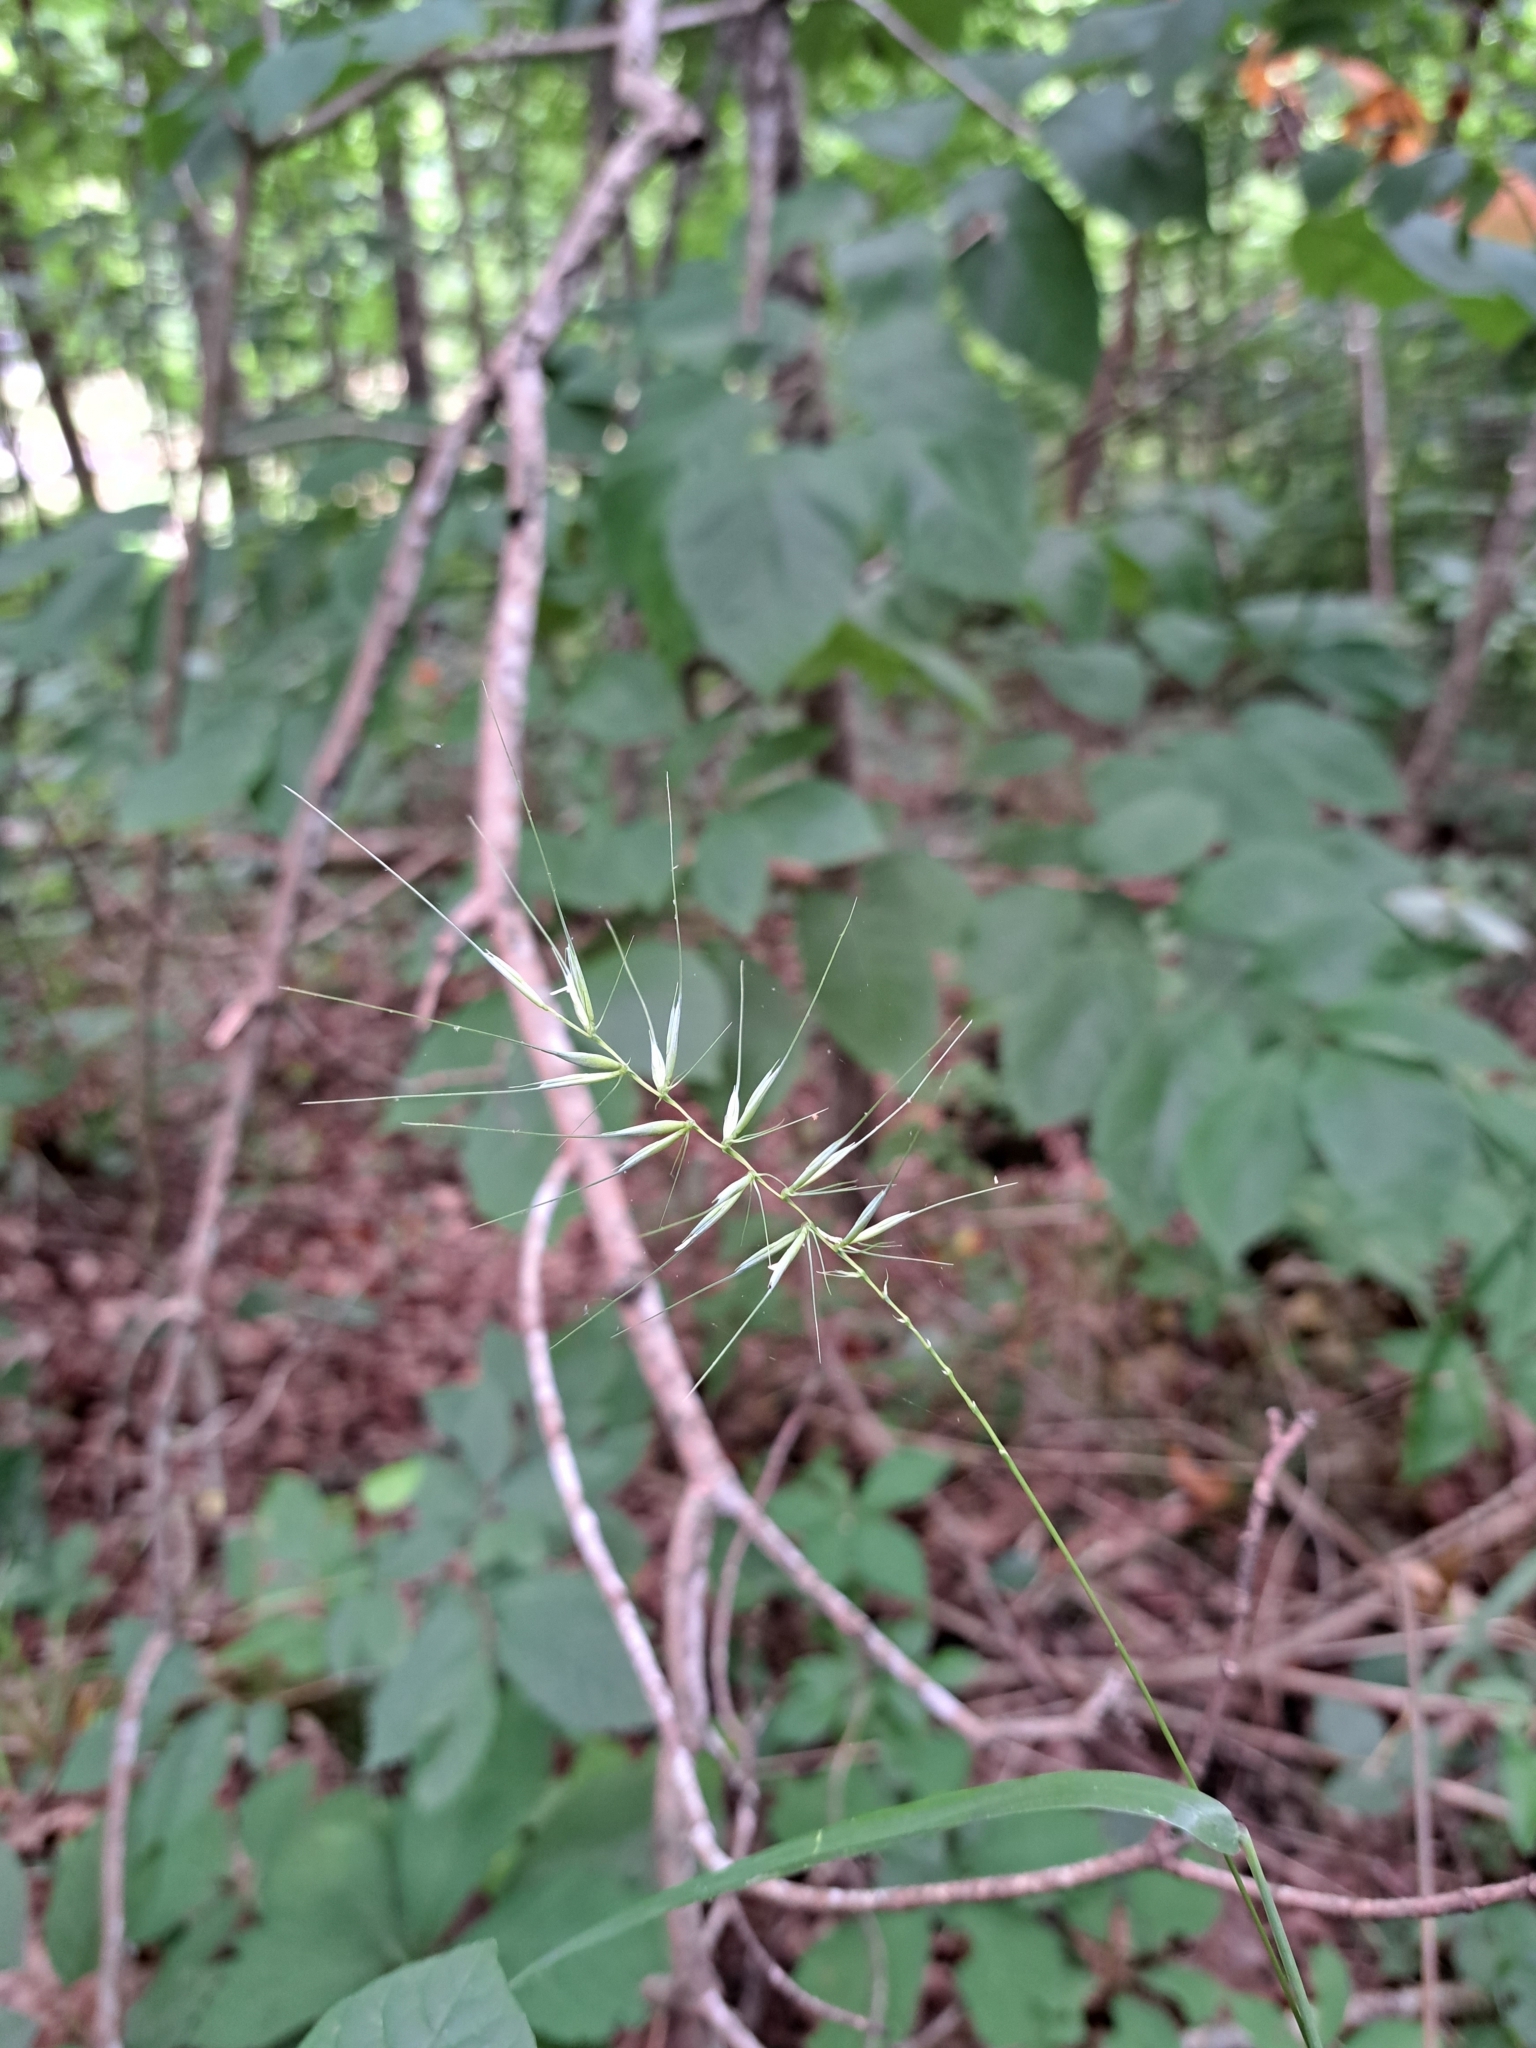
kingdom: Plantae
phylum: Tracheophyta
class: Liliopsida
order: Poales
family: Poaceae
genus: Elymus
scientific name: Elymus hystrix
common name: Bottlebrush grass
